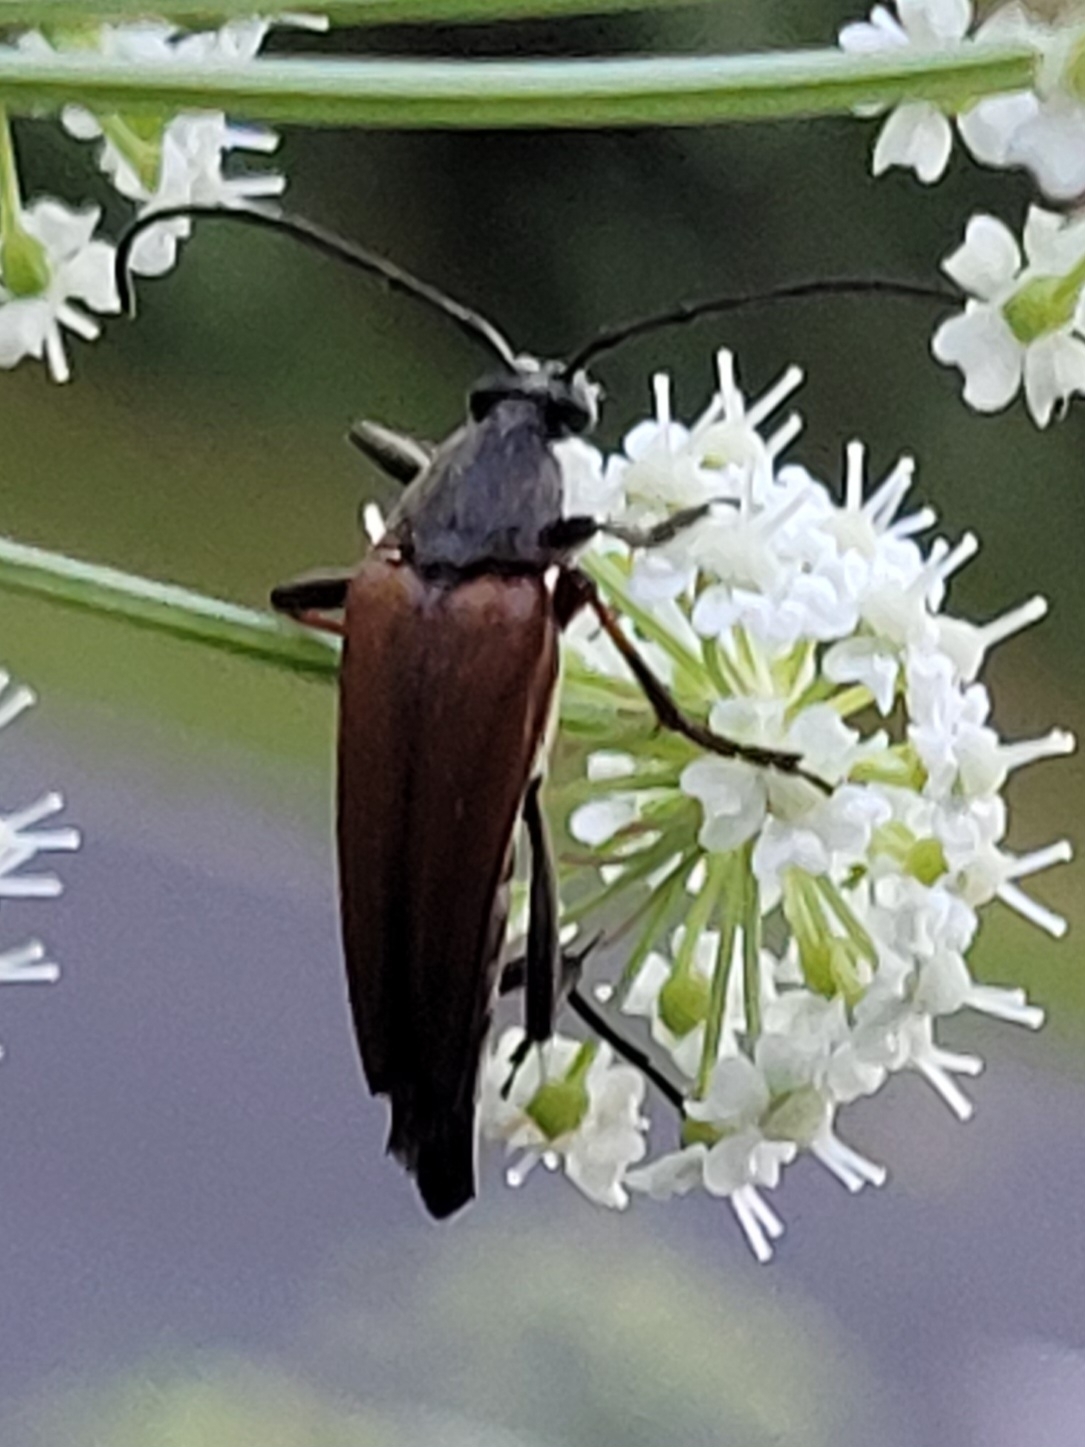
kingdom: Animalia
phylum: Arthropoda
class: Insecta
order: Coleoptera
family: Cerambycidae
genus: Etorofus
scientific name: Etorofus pubescens
